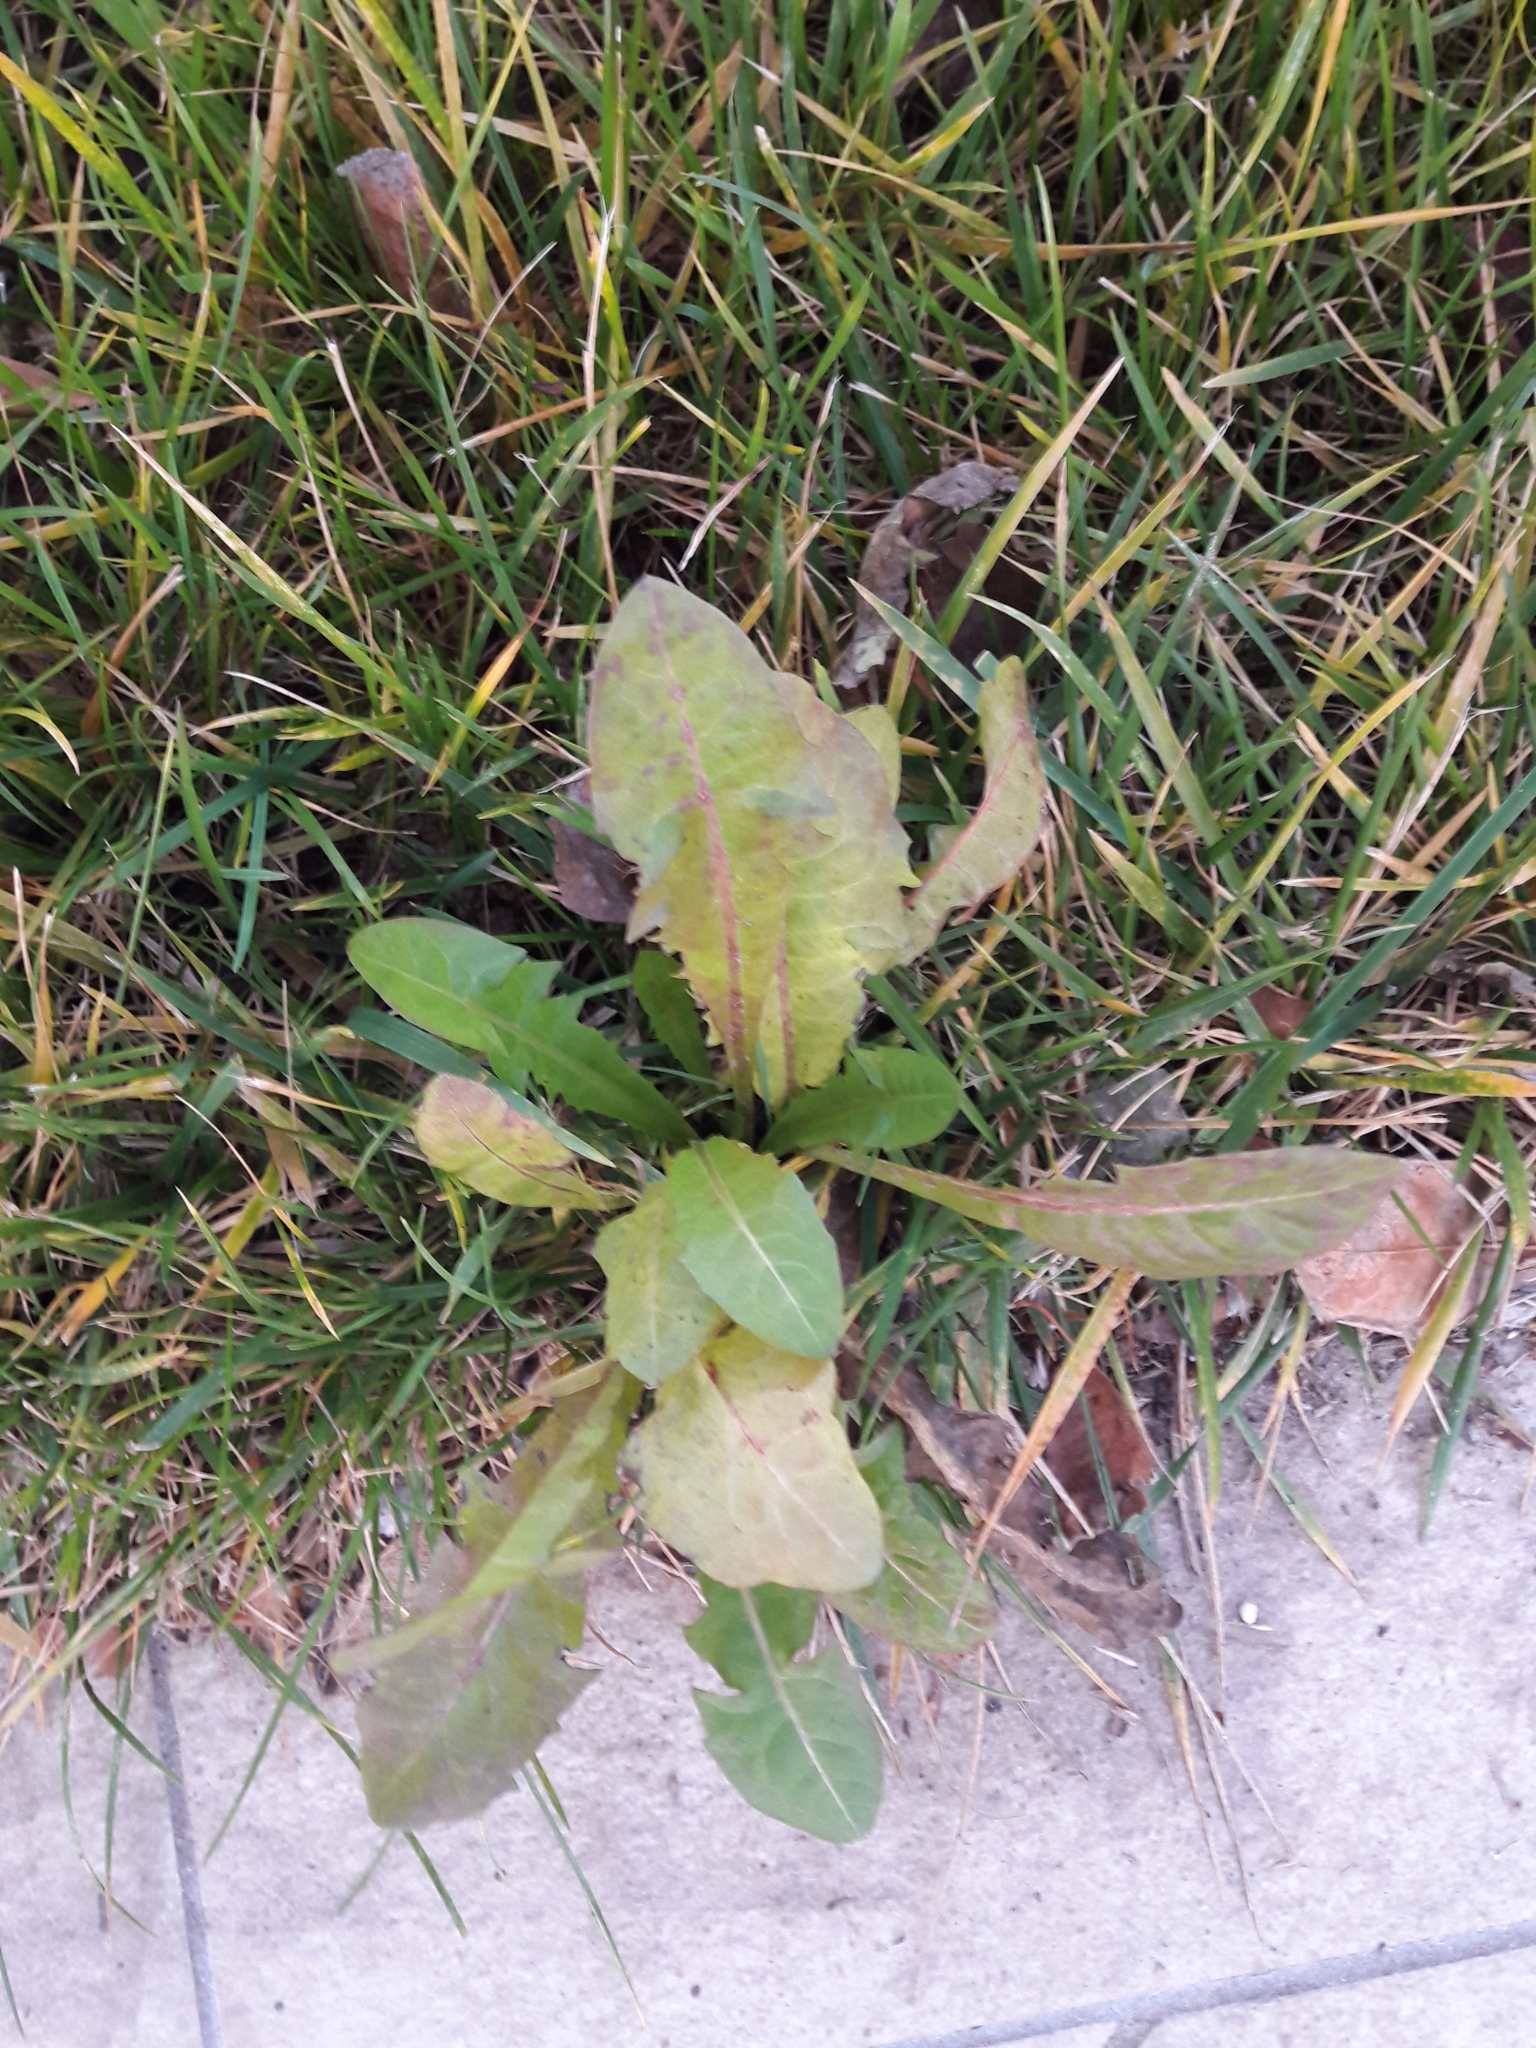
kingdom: Plantae
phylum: Tracheophyta
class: Magnoliopsida
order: Asterales
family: Asteraceae
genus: Taraxacum
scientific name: Taraxacum officinale
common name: Common dandelion
